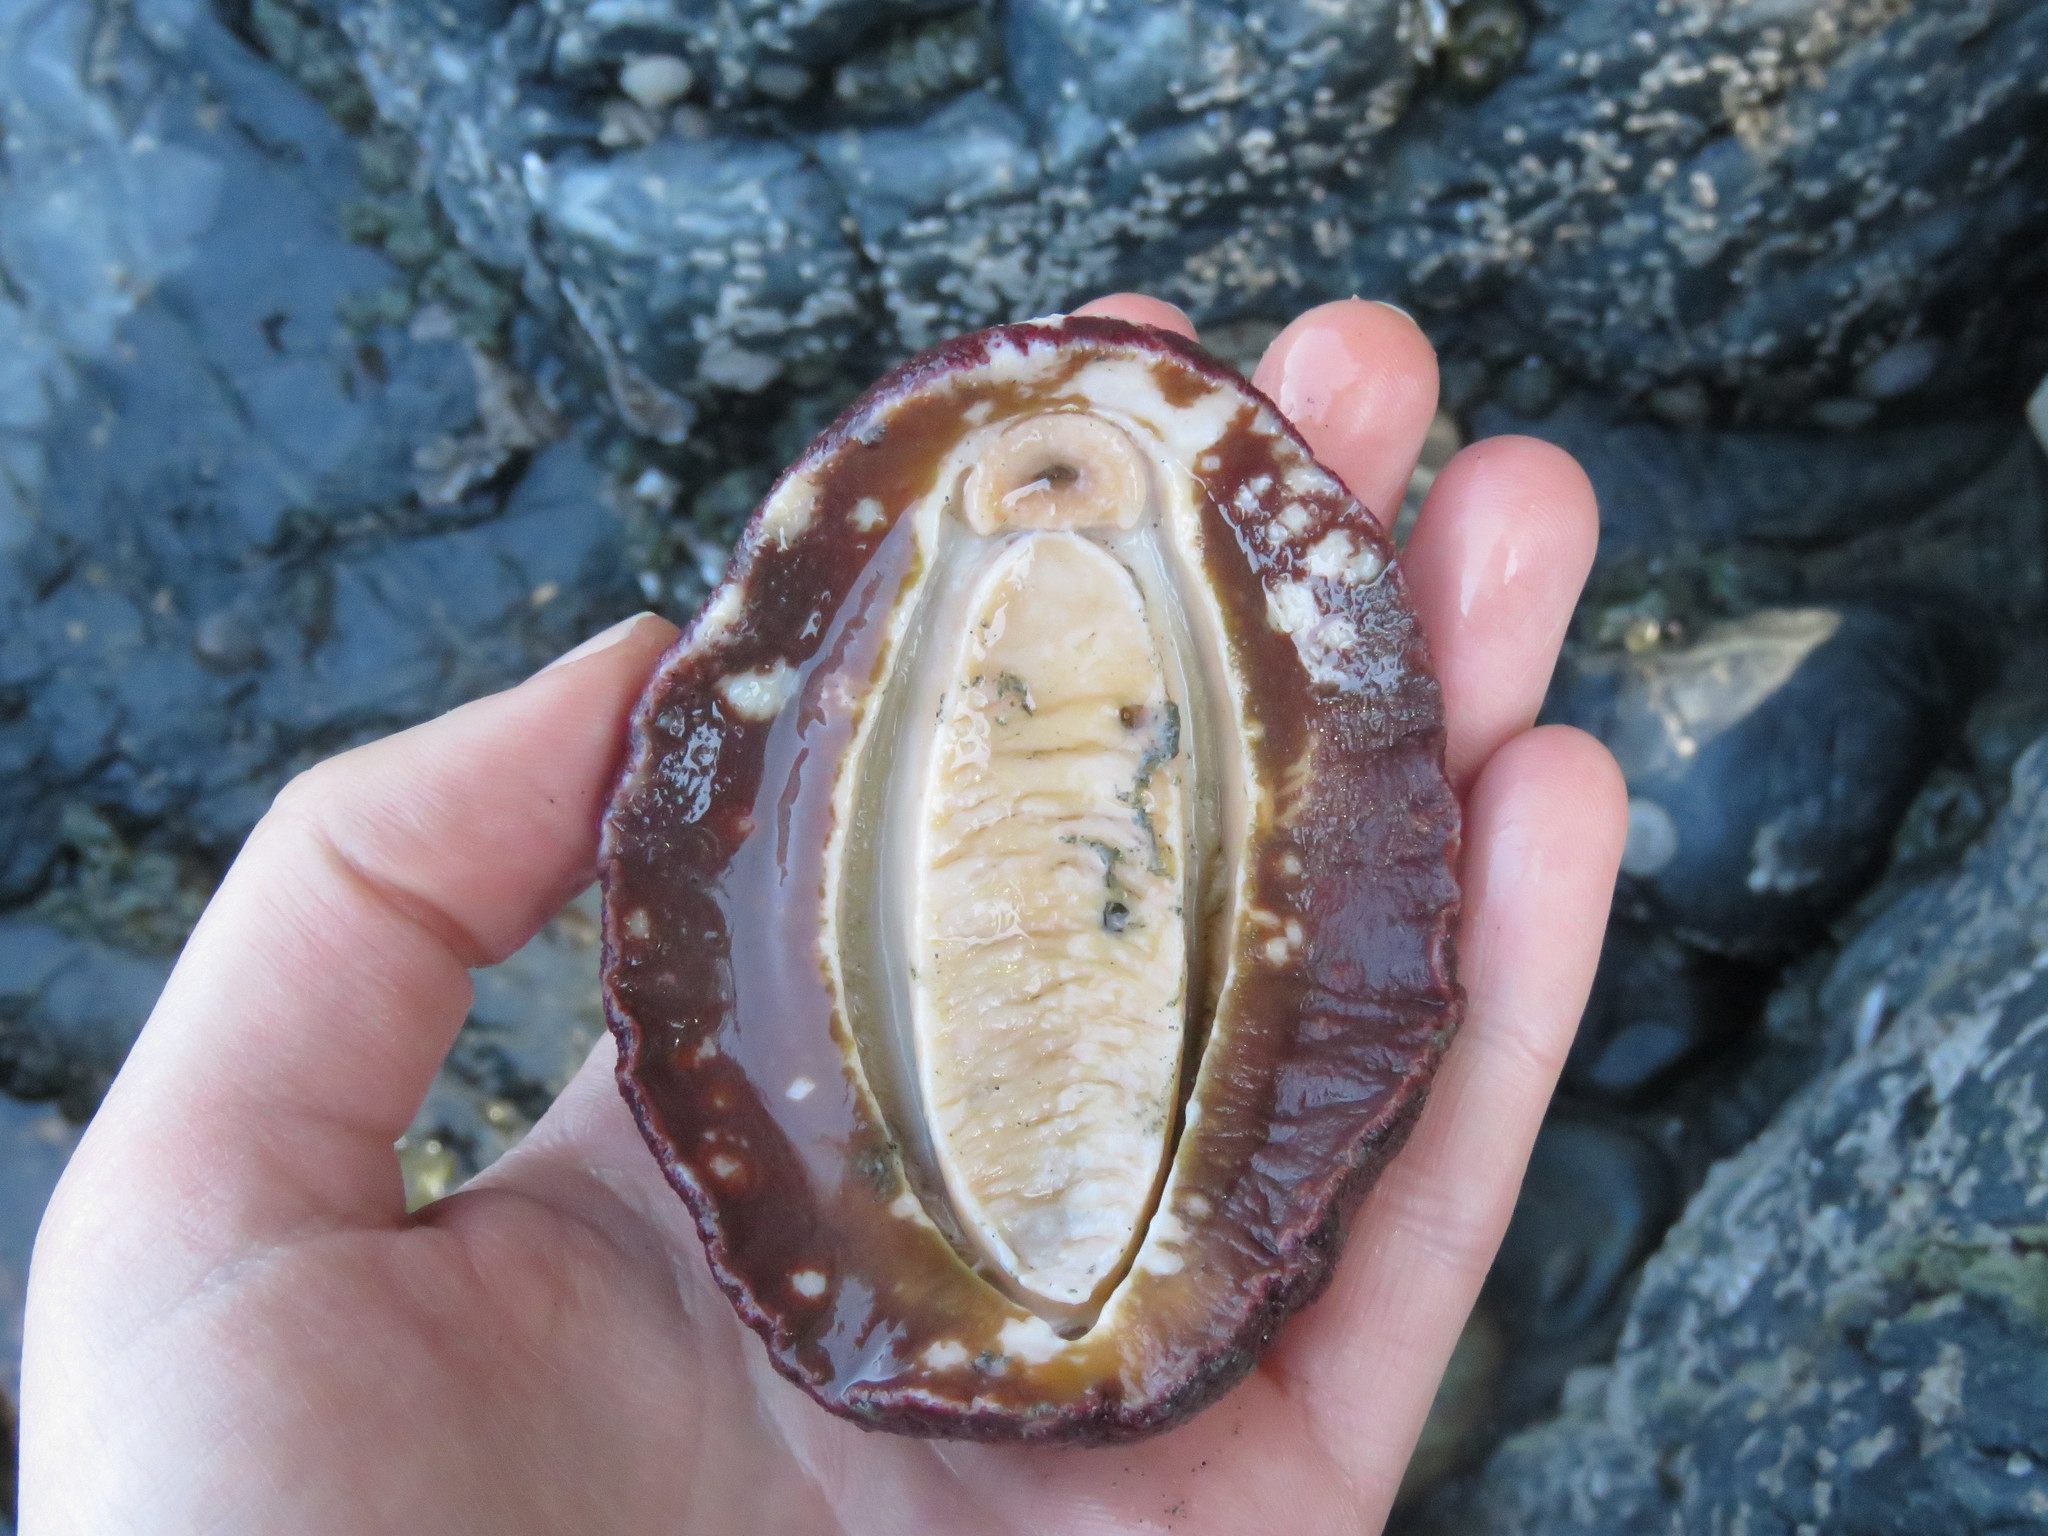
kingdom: Animalia
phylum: Mollusca
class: Polyplacophora
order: Chitonida
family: Acanthochitonidae
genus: Cryptochiton
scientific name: Cryptochiton stelleri
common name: Giant pacific chiton
